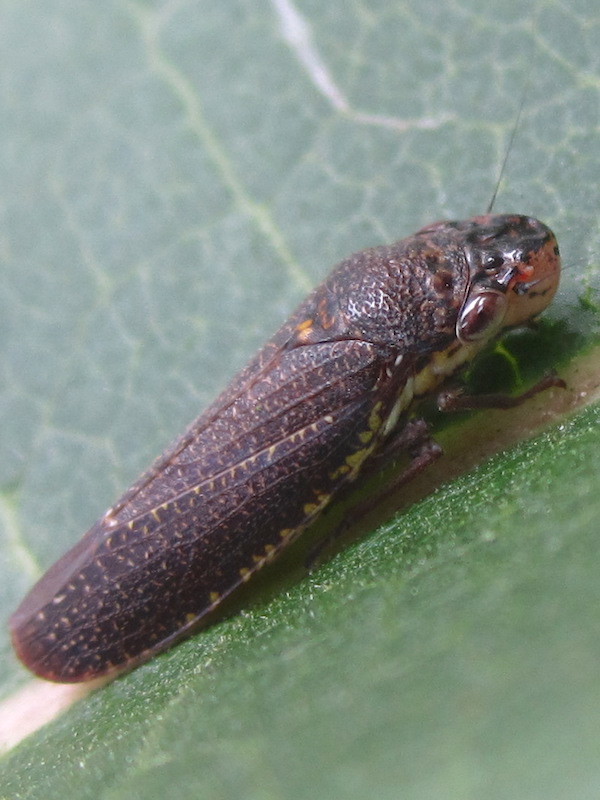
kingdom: Animalia
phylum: Arthropoda
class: Insecta
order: Hemiptera
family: Cicadellidae
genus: Paraulacizes
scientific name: Paraulacizes irrorata
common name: Speckled sharpshooter
